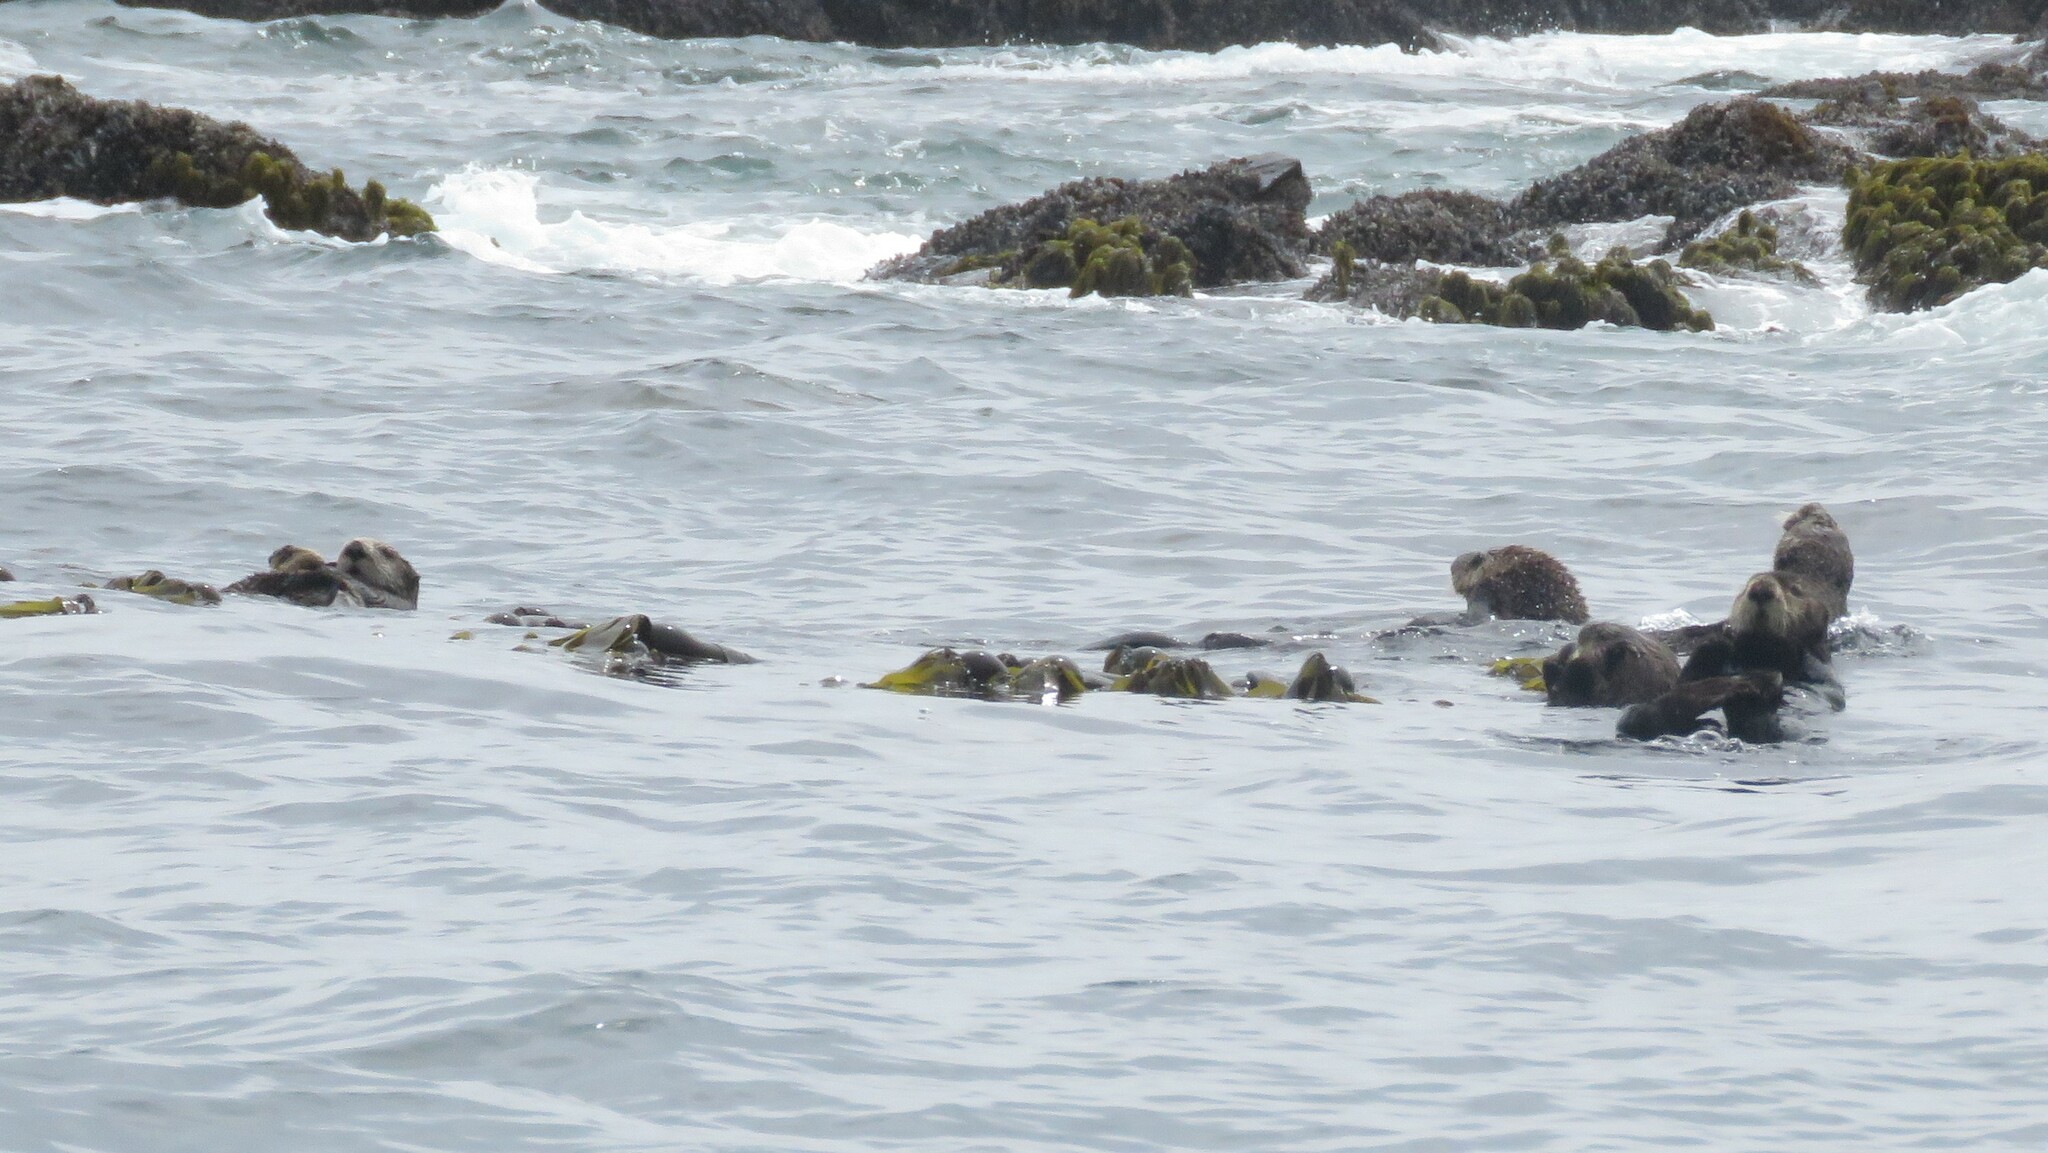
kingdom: Animalia
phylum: Chordata
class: Mammalia
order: Carnivora
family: Mustelidae
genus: Enhydra
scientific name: Enhydra lutris
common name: Sea otter
